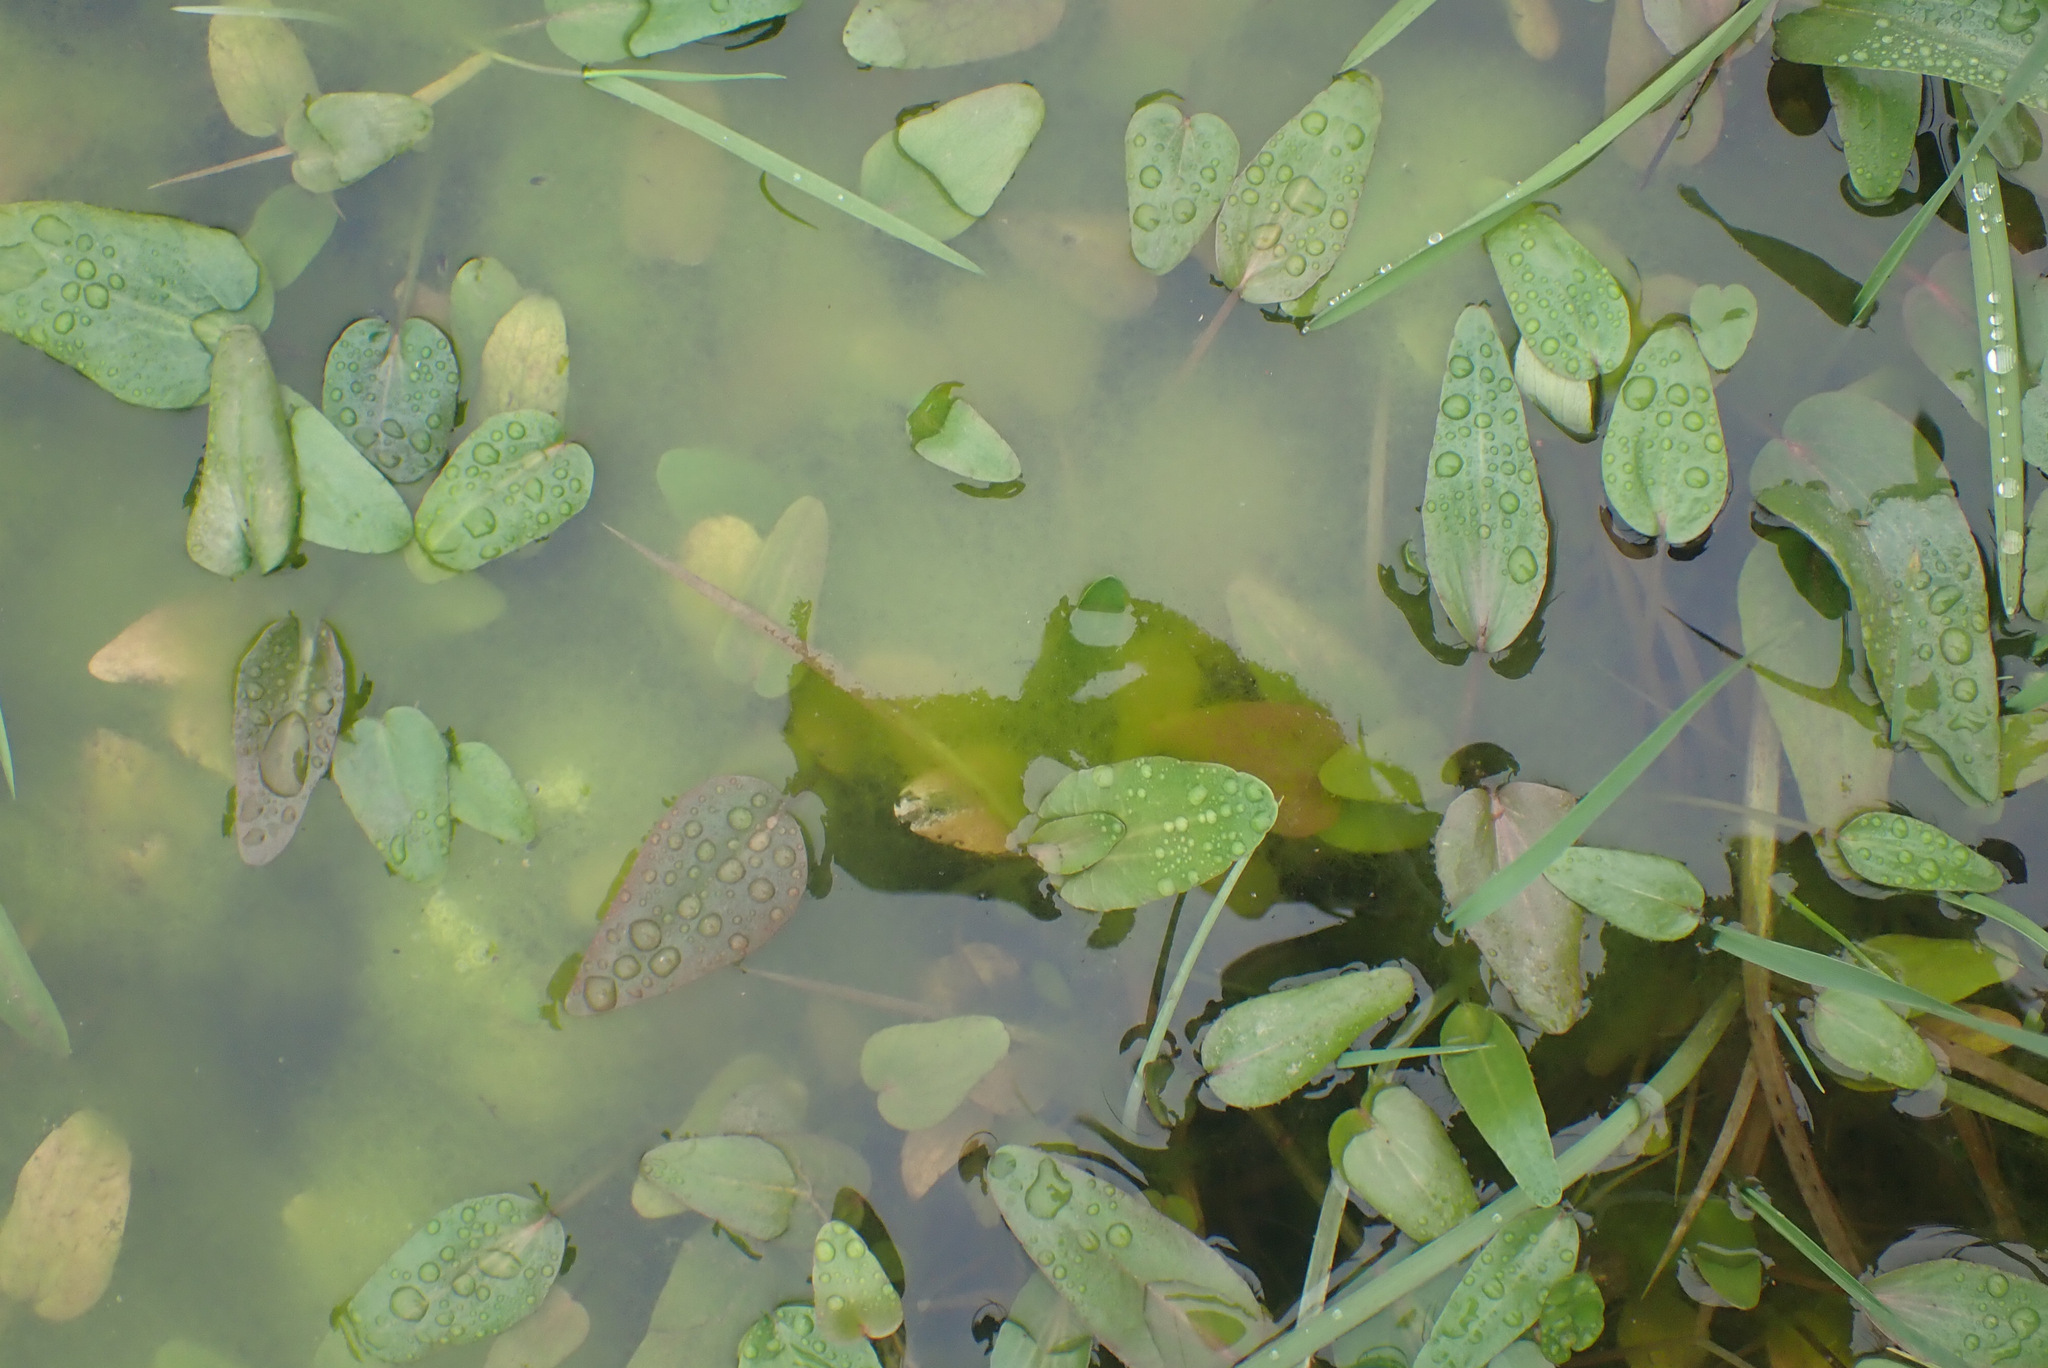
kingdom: Plantae
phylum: Tracheophyta
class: Magnoliopsida
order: Ranunculales
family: Ranunculaceae
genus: Ranunculus
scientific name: Ranunculus flammula
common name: Lesser spearwort
